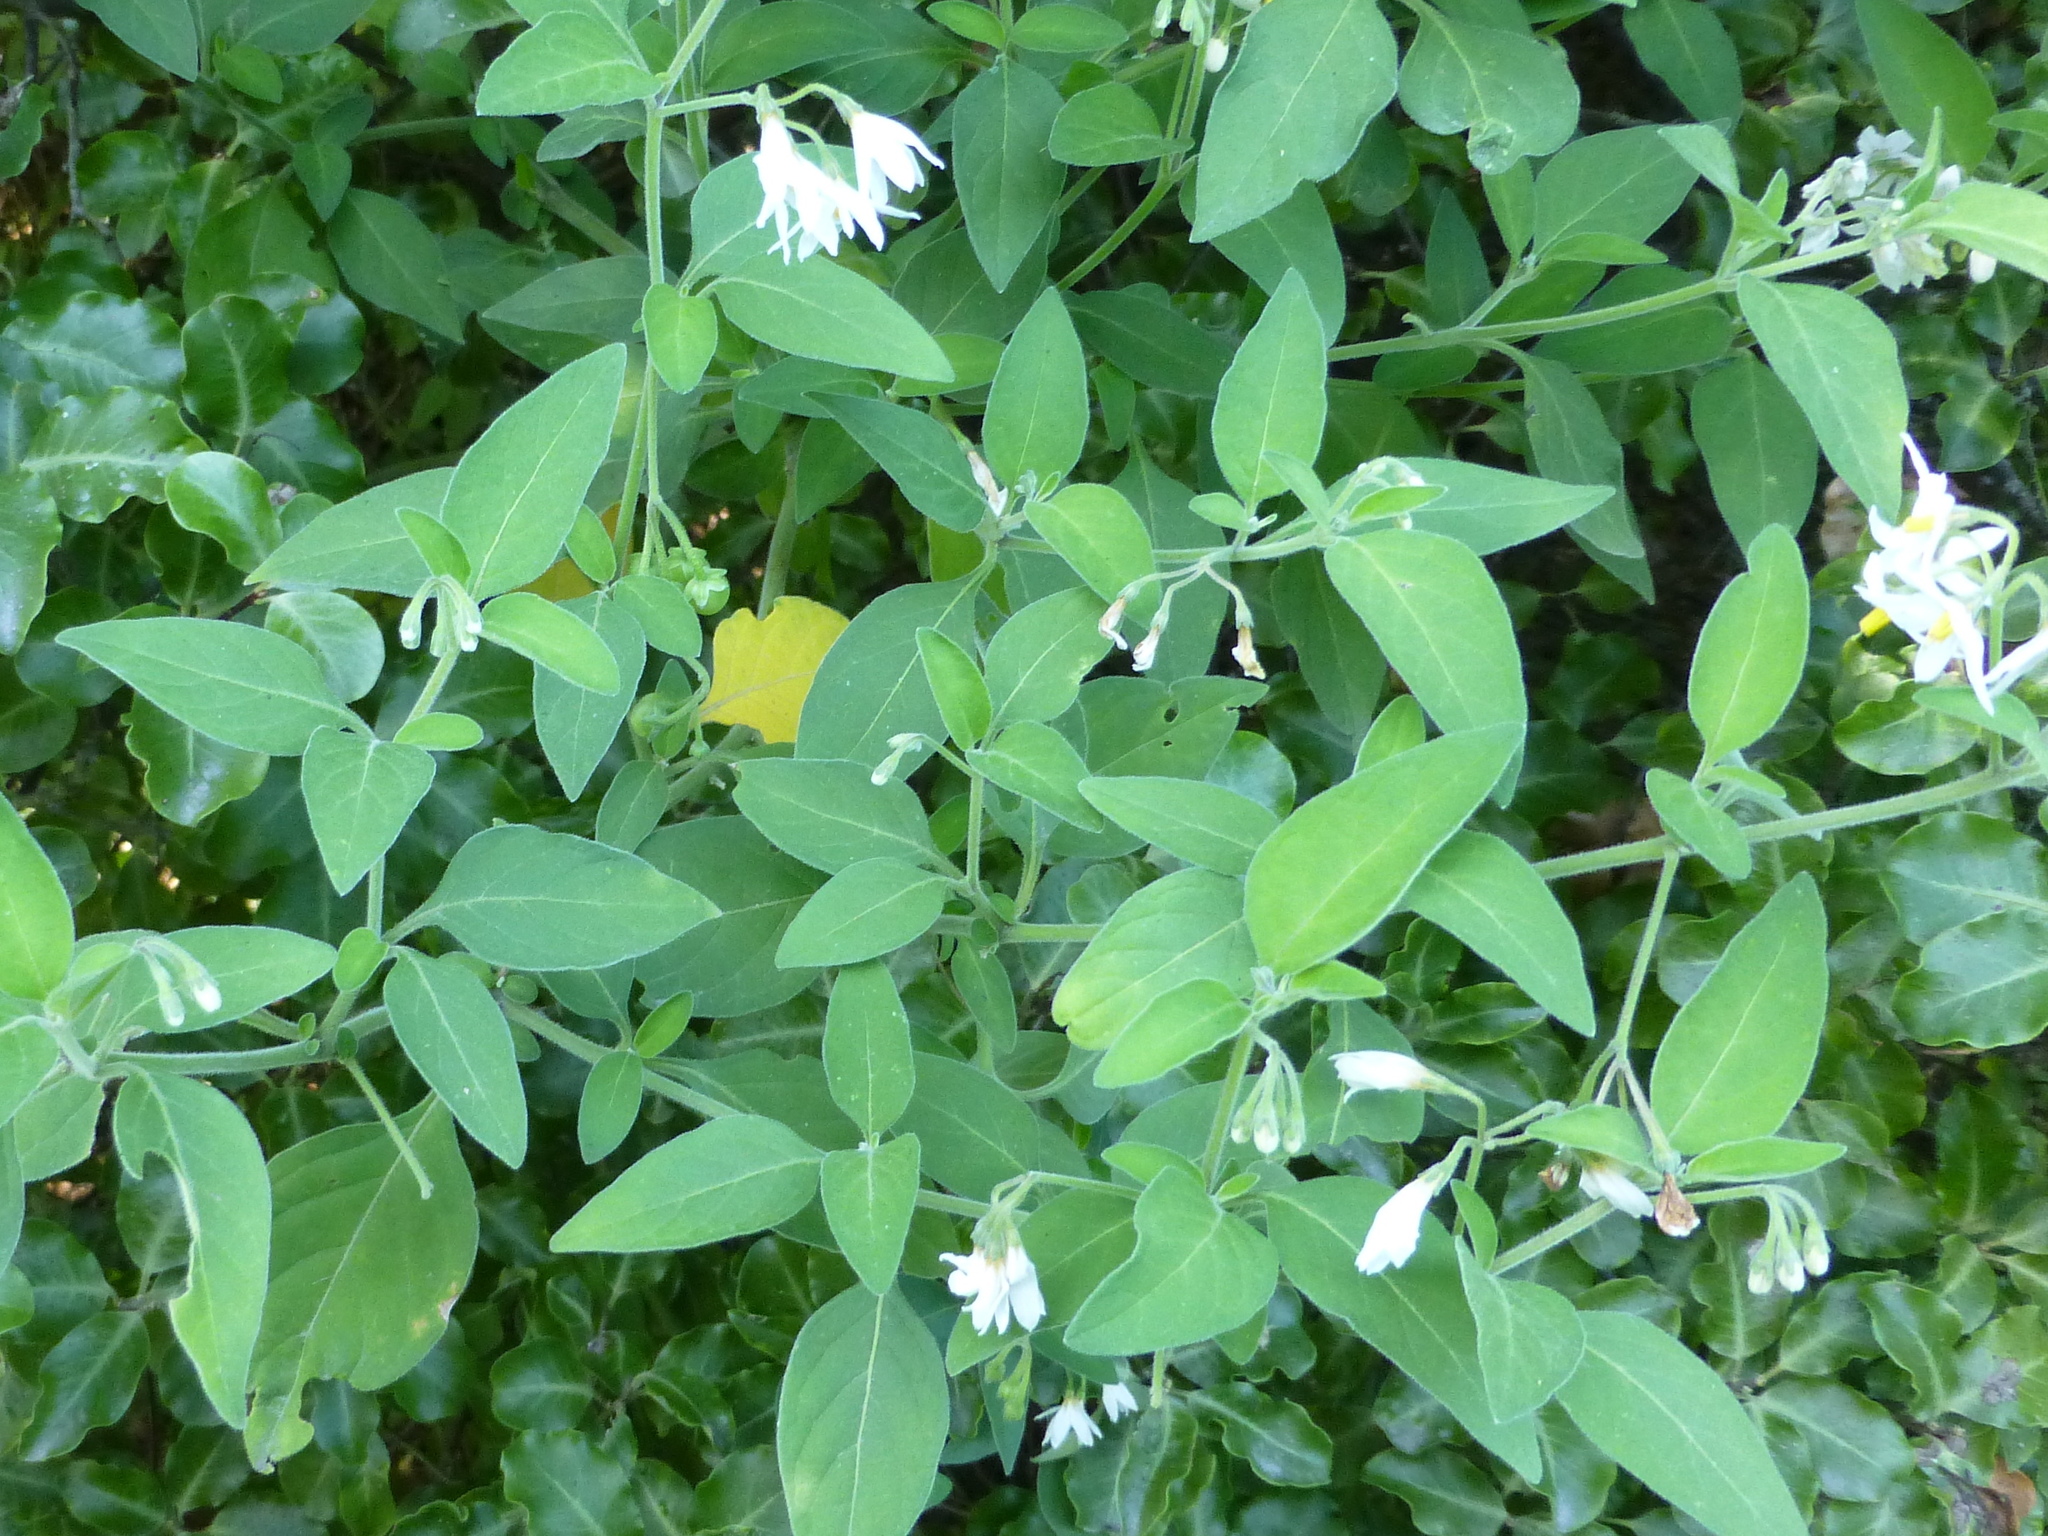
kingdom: Plantae
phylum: Tracheophyta
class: Magnoliopsida
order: Solanales
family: Solanaceae
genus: Solanum
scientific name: Solanum chenopodioides
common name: Tall nightshade
